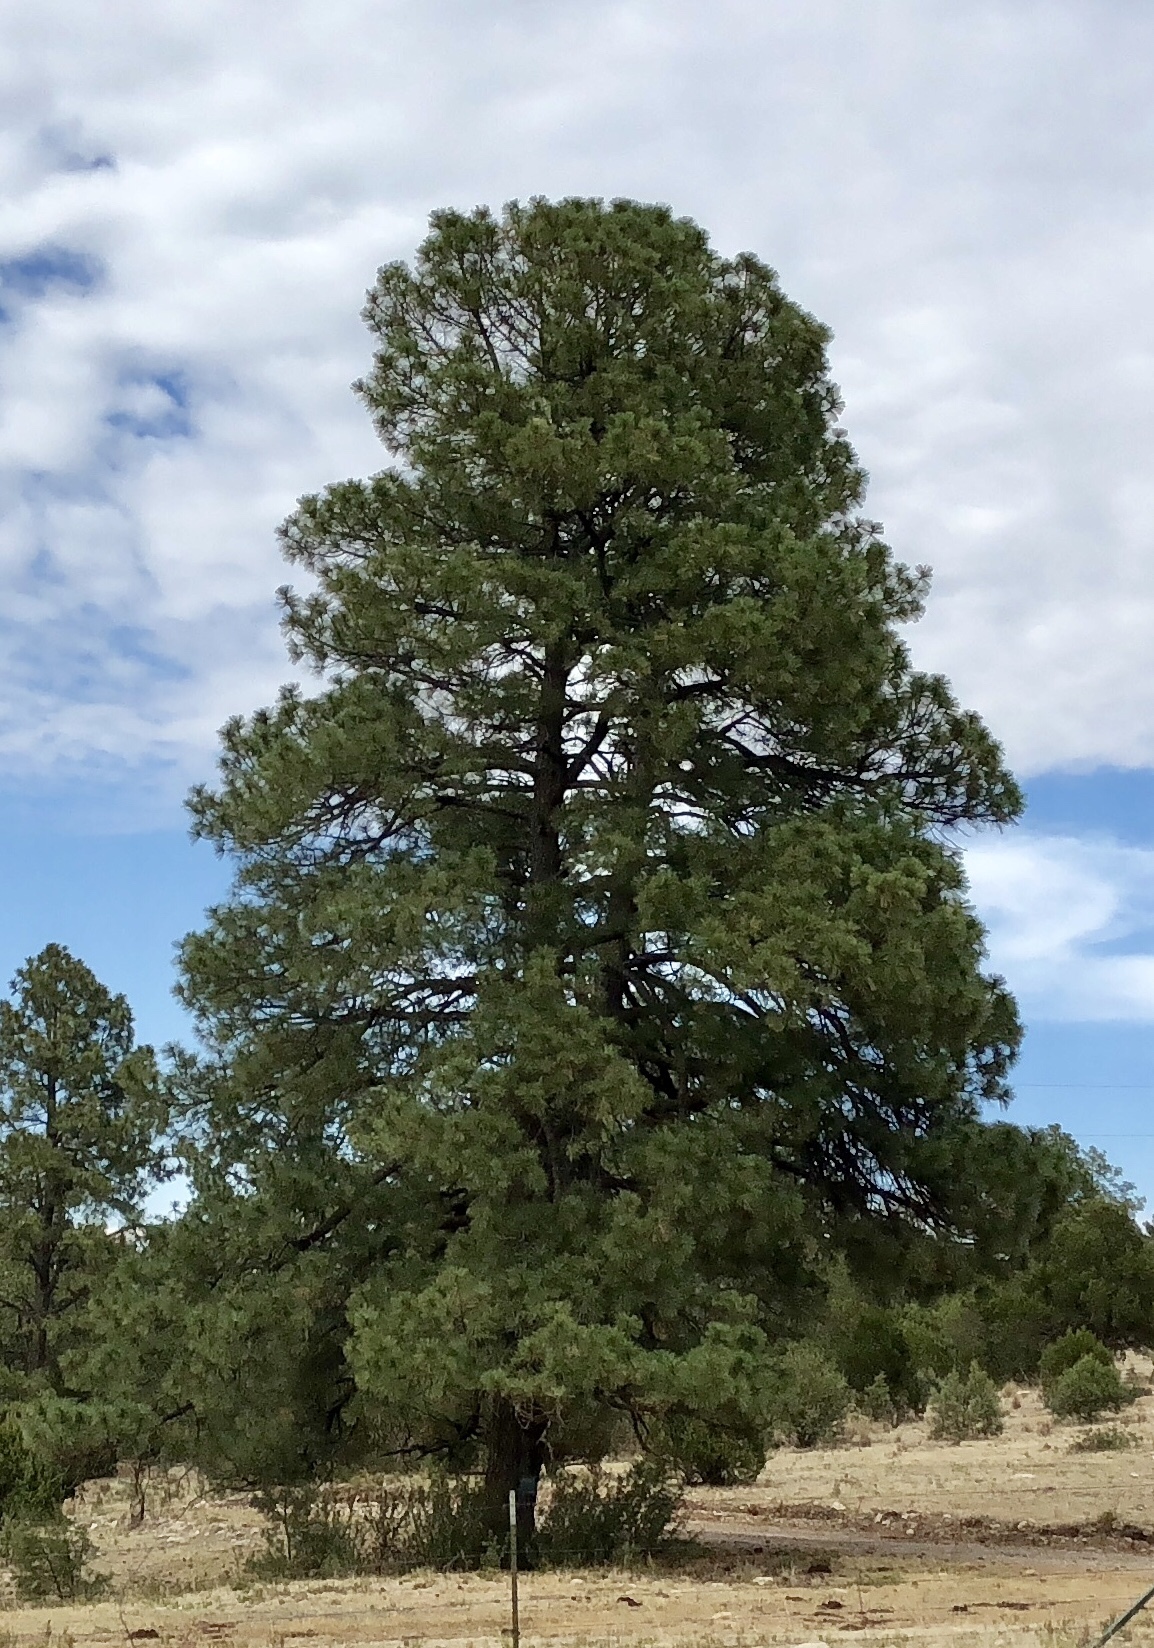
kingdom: Plantae
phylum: Tracheophyta
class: Pinopsida
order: Pinales
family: Pinaceae
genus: Pinus
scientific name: Pinus ponderosa
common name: Western yellow-pine
